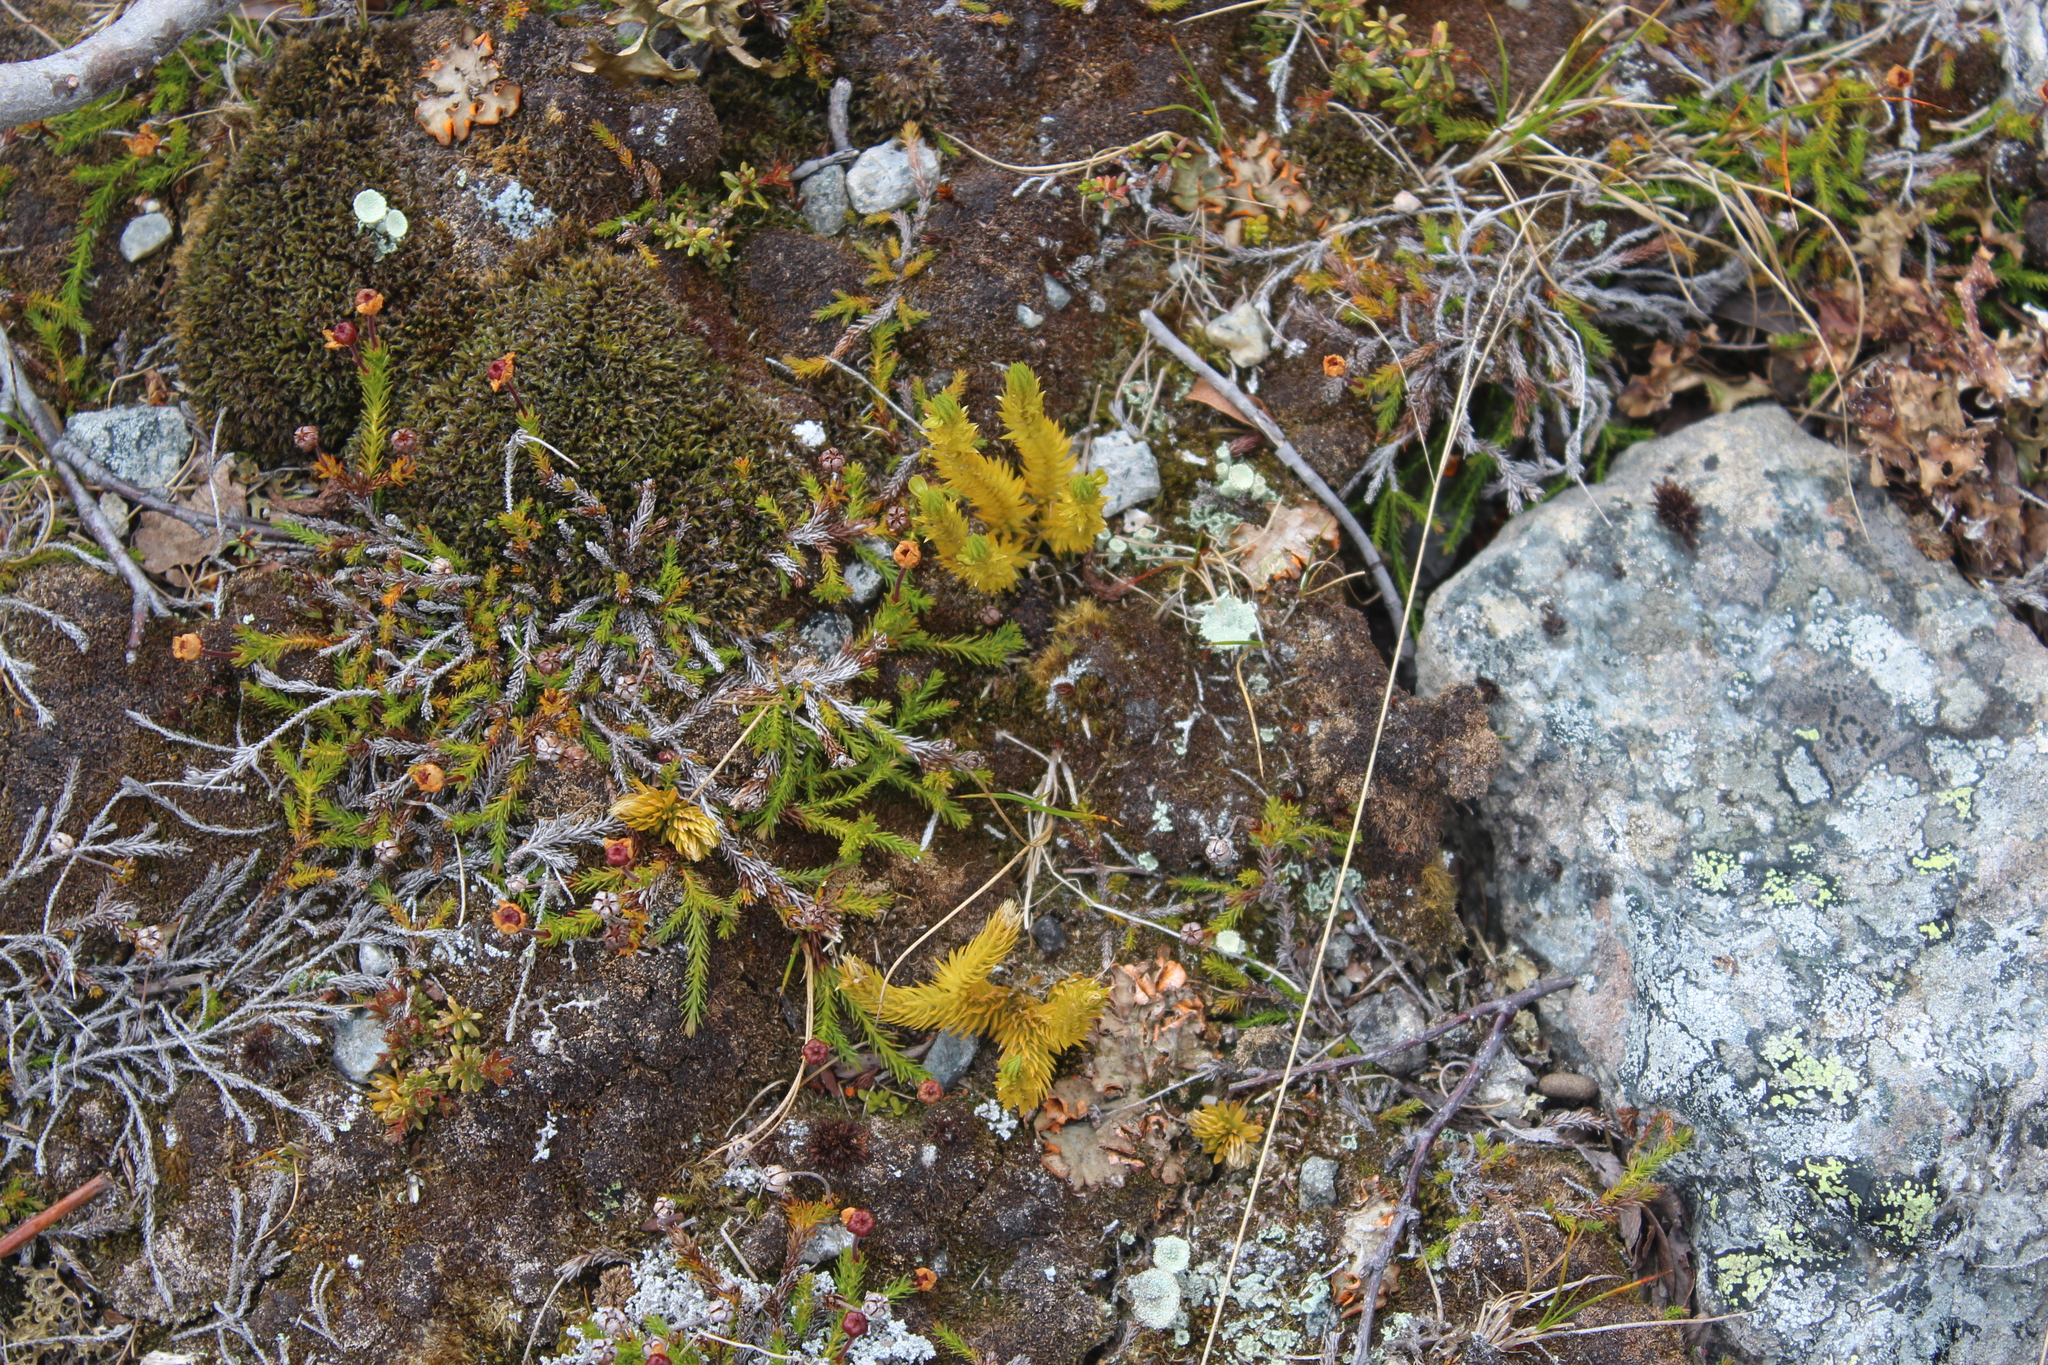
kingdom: Plantae
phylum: Tracheophyta
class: Lycopodiopsida
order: Lycopodiales
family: Lycopodiaceae
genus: Huperzia
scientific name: Huperzia selago
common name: Northern firmoss
